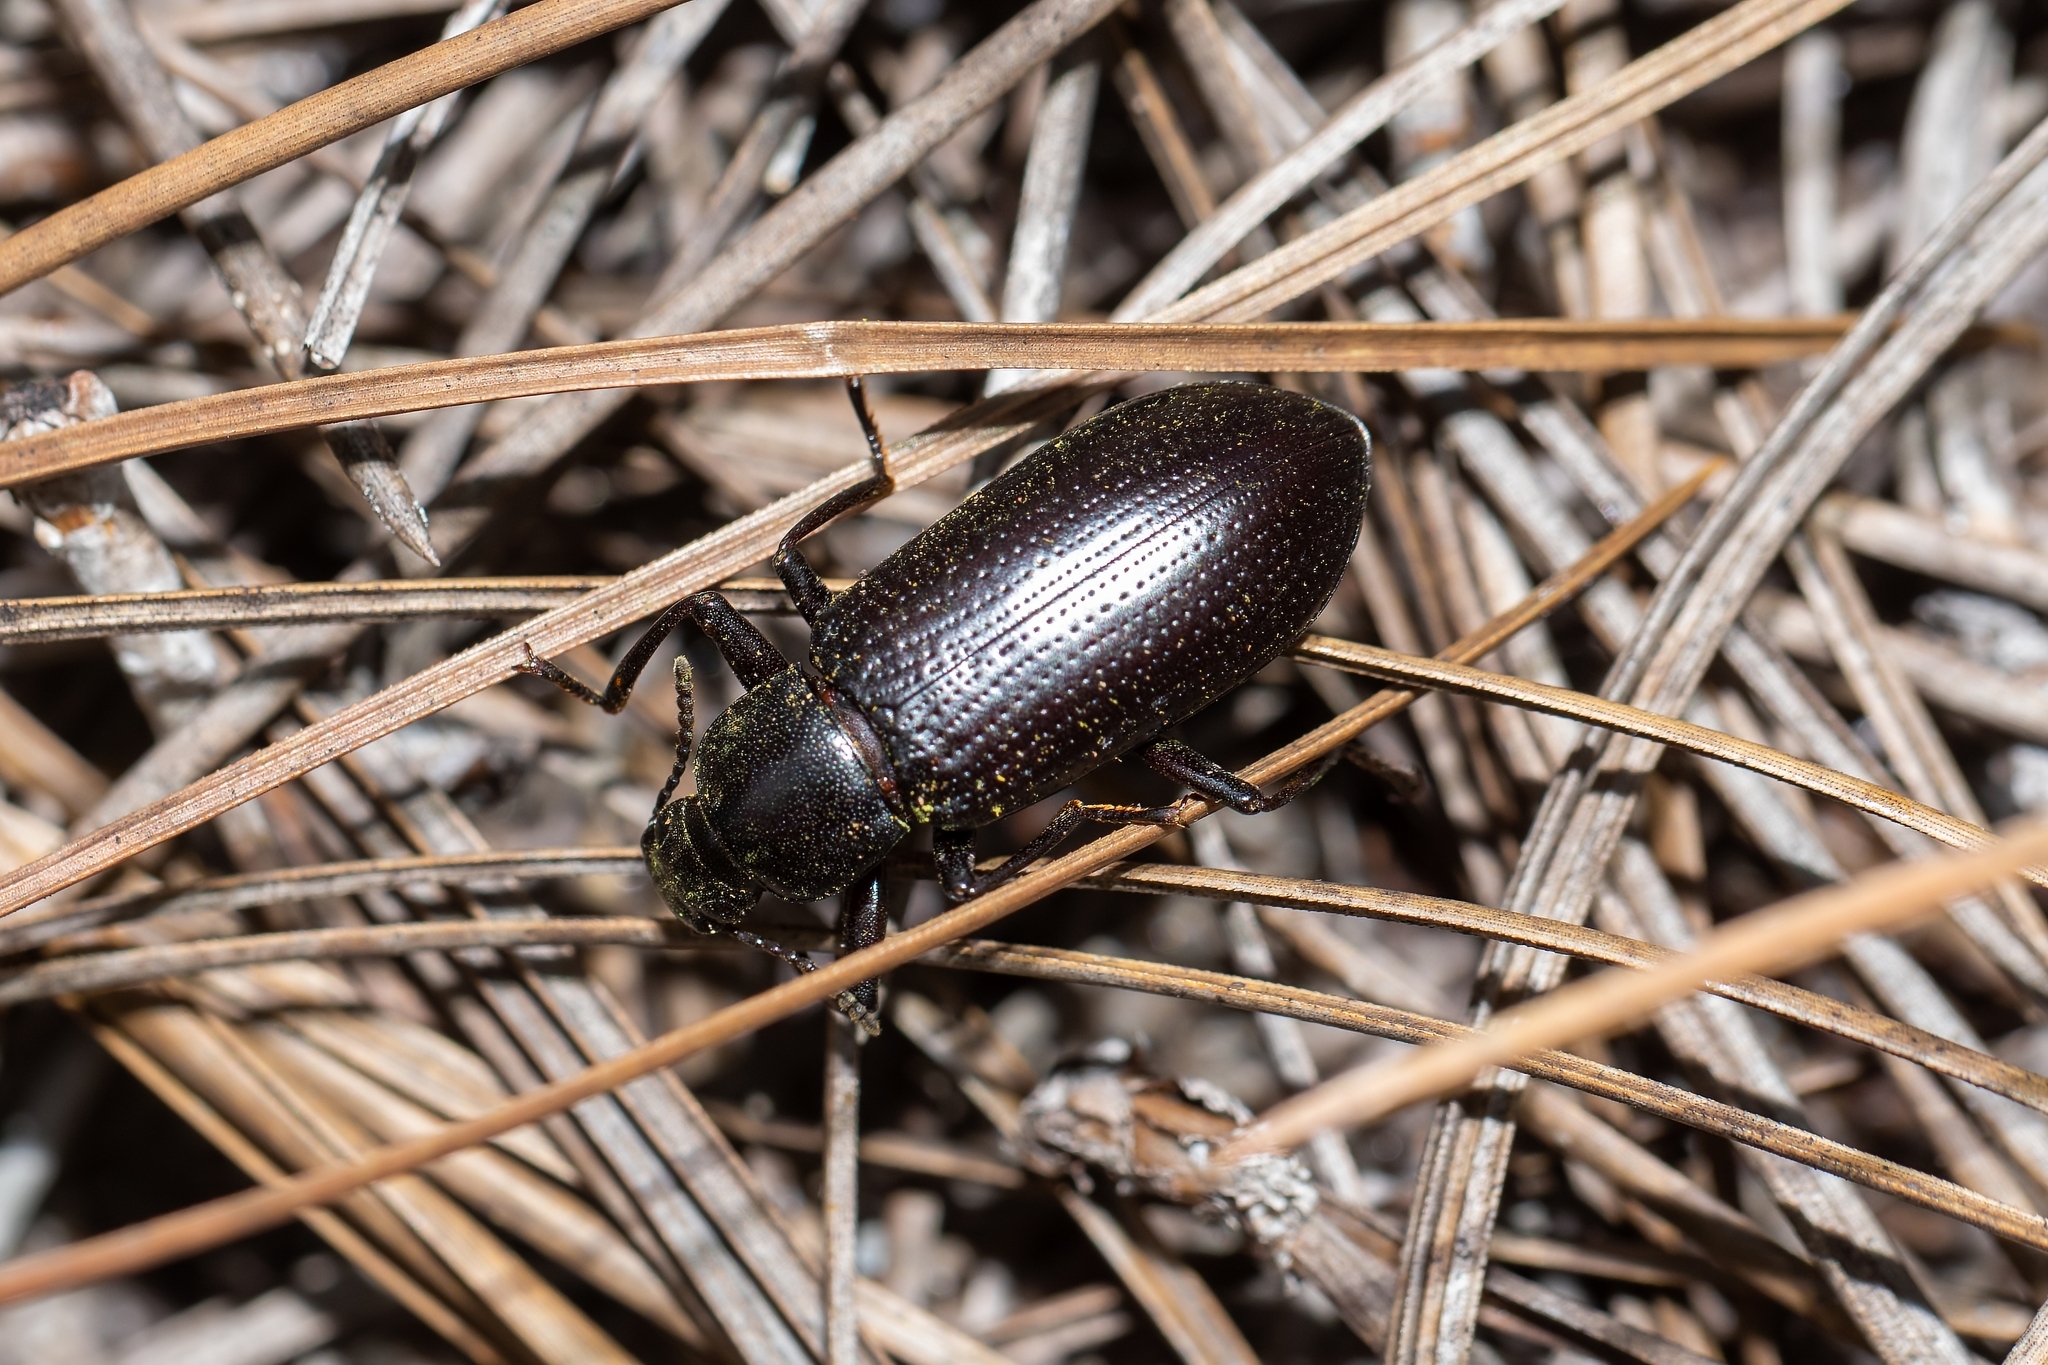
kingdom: Animalia
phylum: Arthropoda
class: Insecta
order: Coleoptera
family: Tenebrionidae
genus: Alobates
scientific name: Alobates
